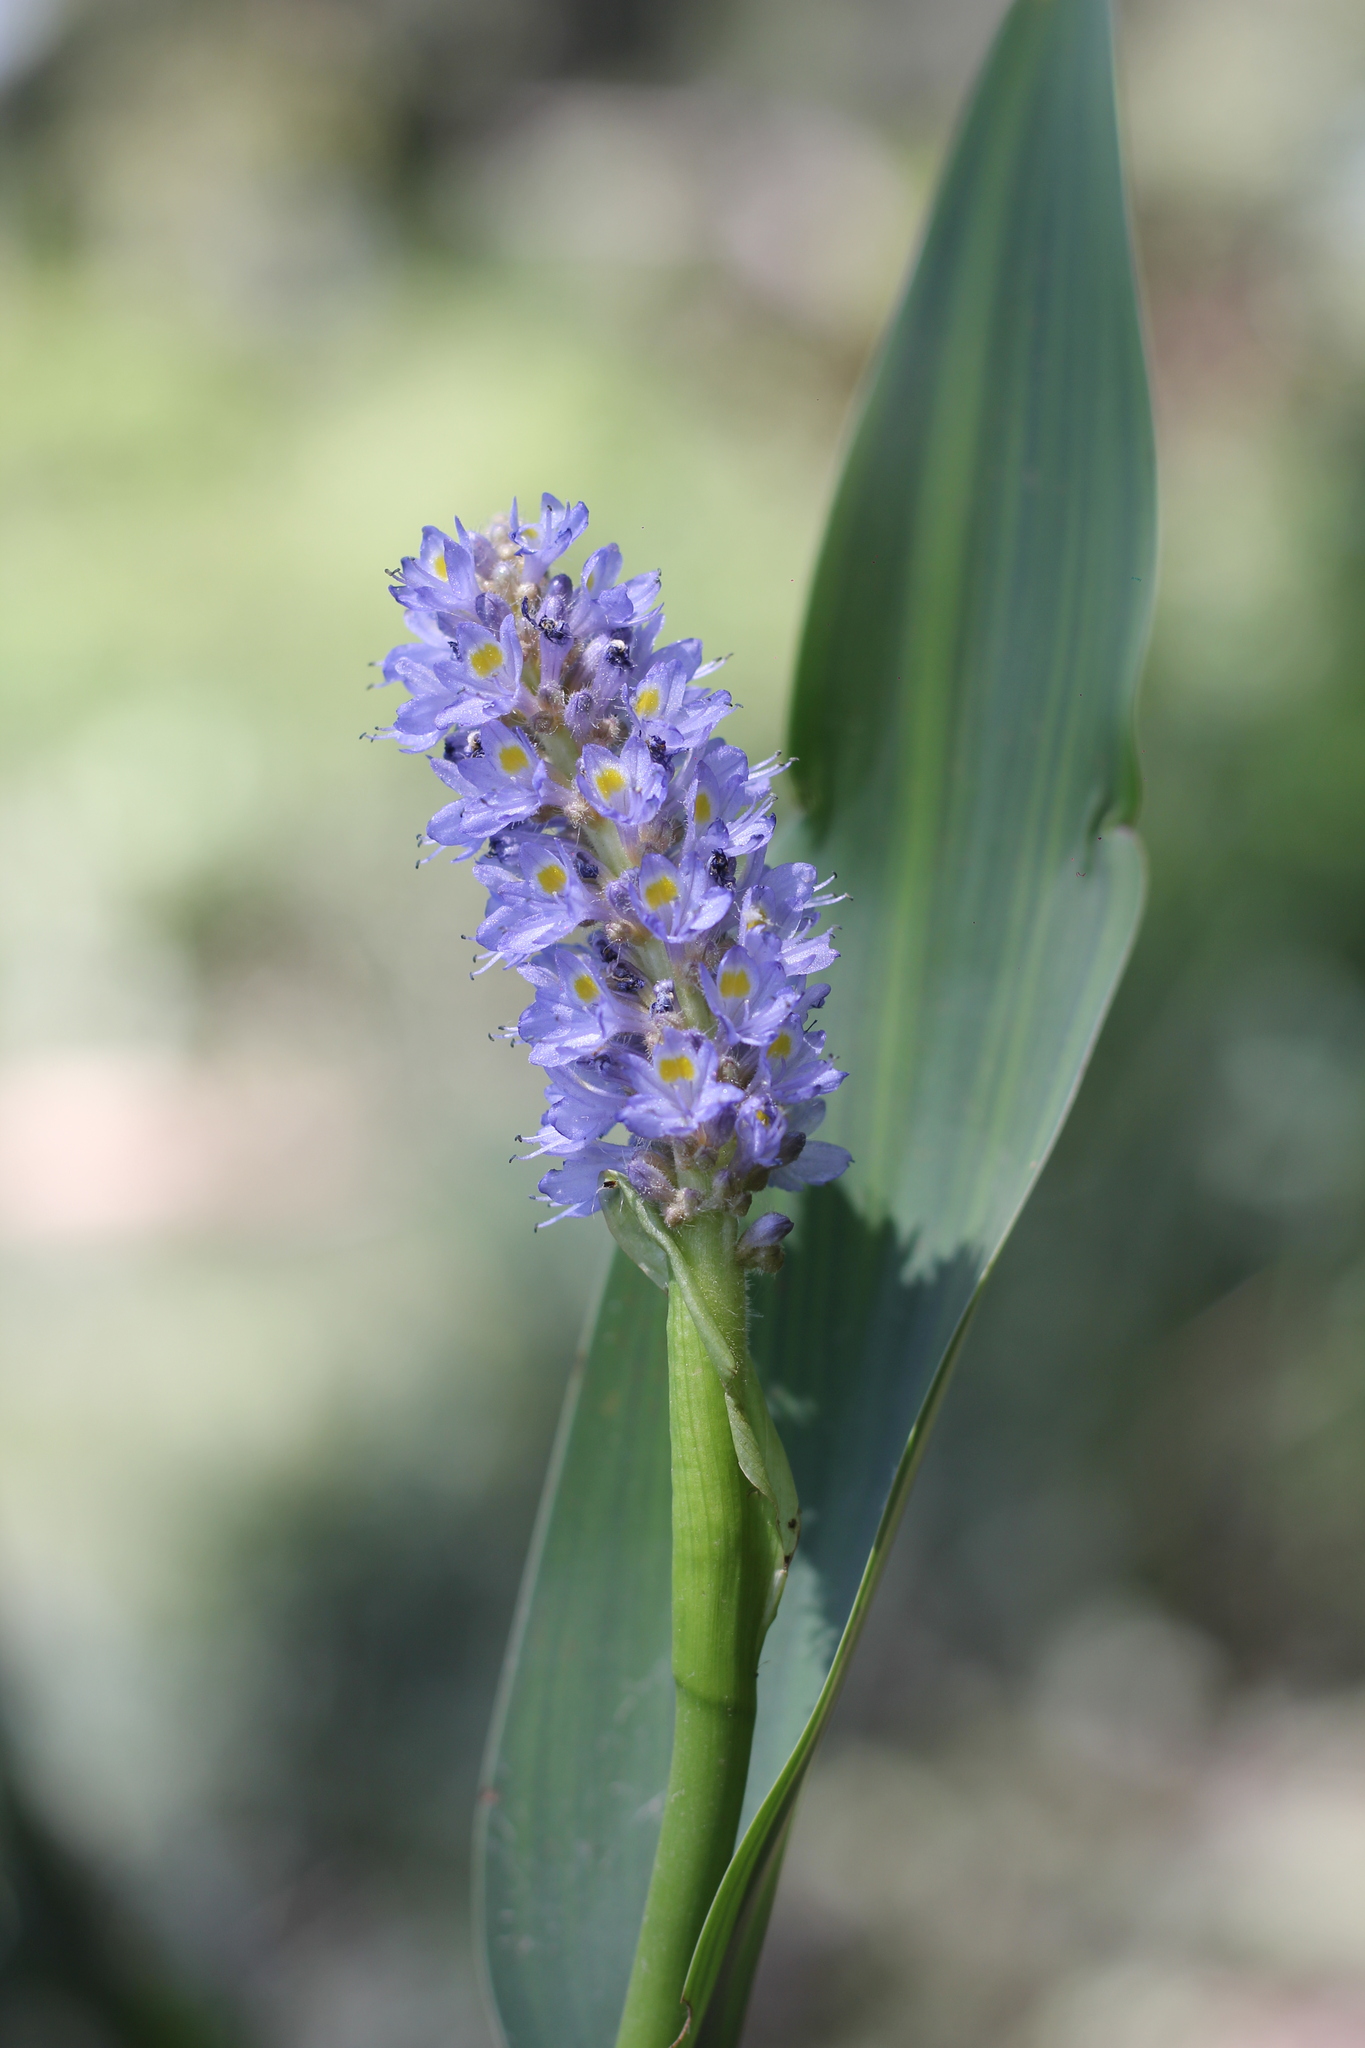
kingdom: Plantae
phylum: Tracheophyta
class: Liliopsida
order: Commelinales
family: Pontederiaceae
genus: Pontederia
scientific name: Pontederia cordata
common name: Pickerelweed
